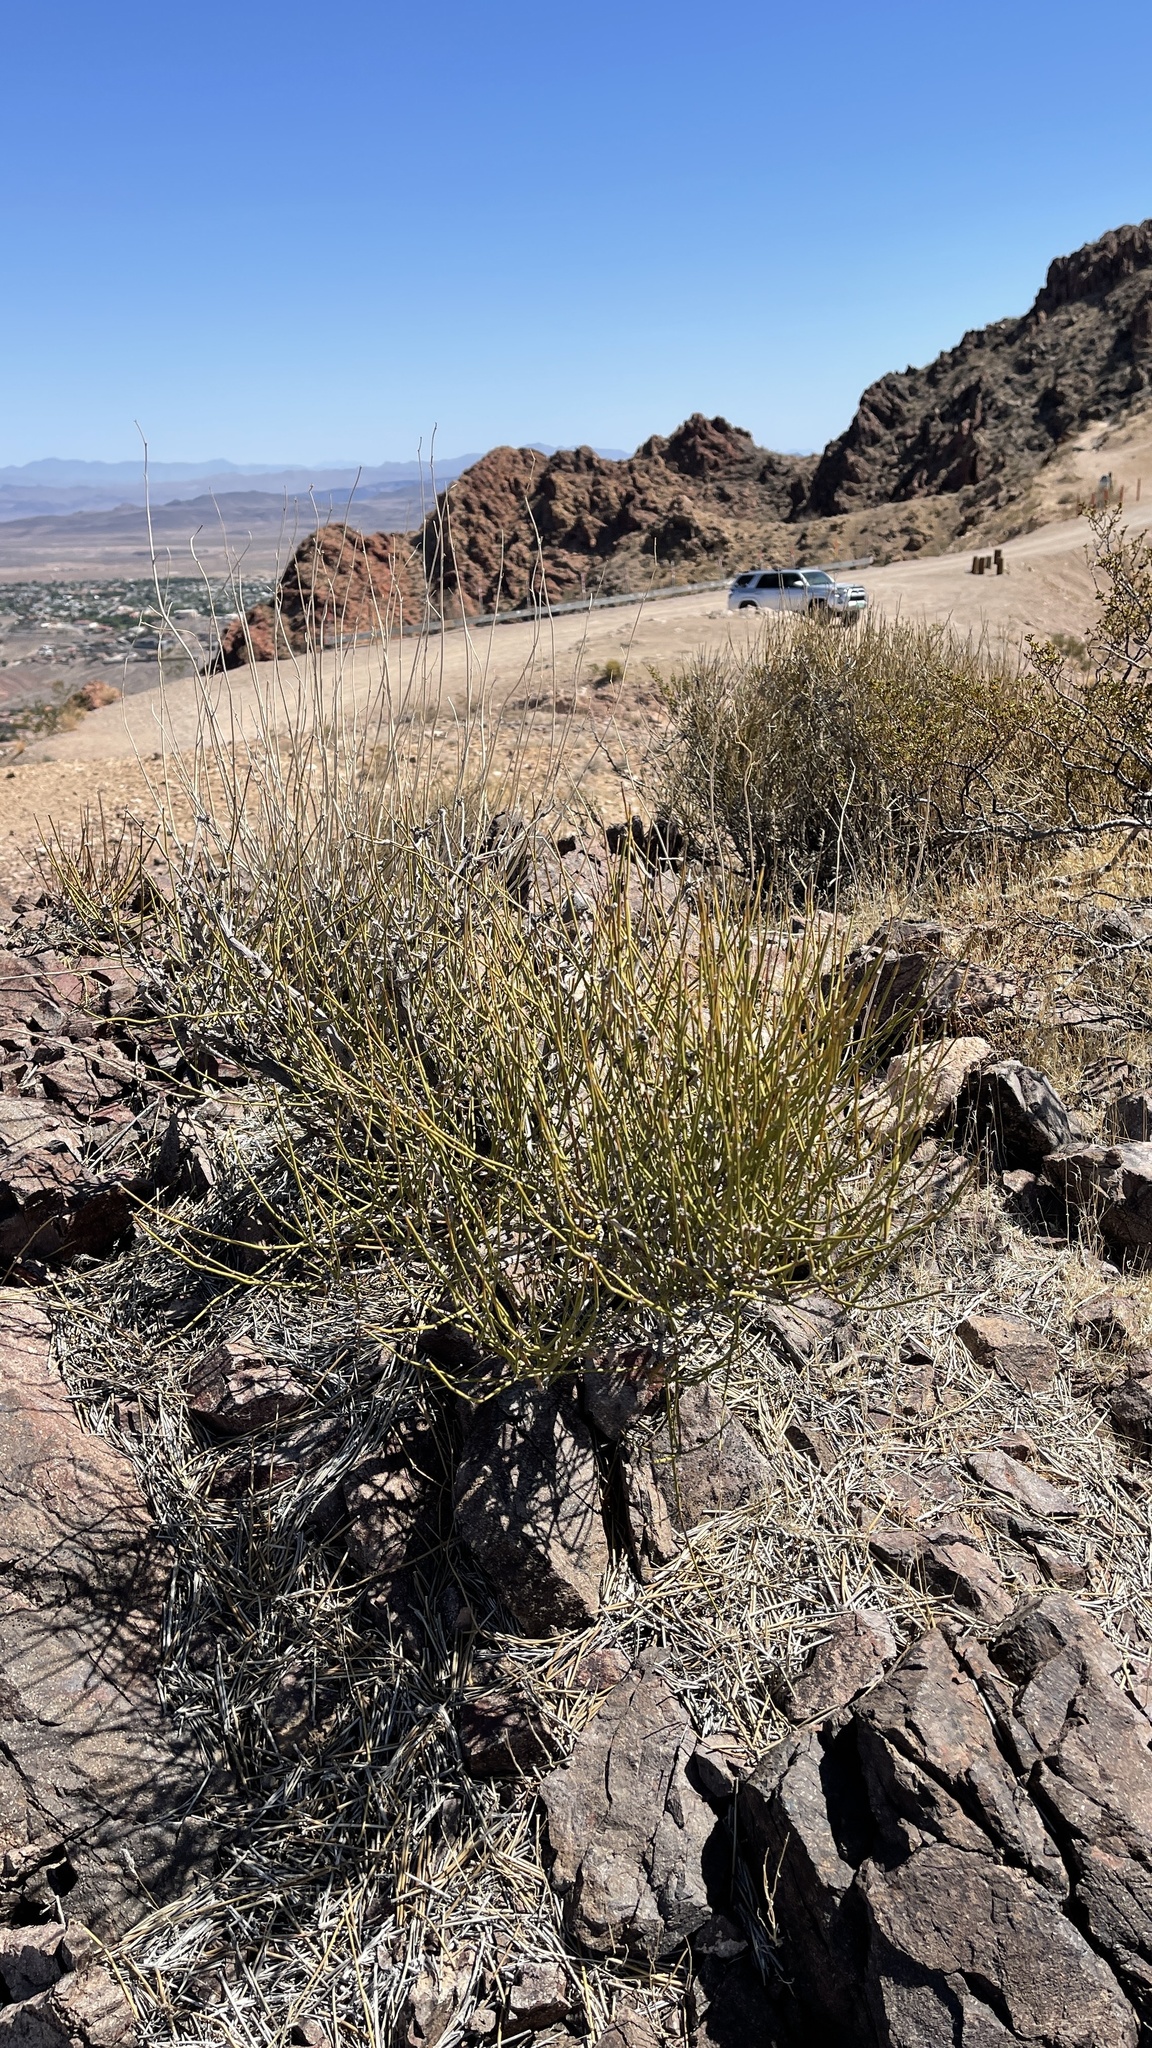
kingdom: Plantae
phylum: Tracheophyta
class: Gnetopsida
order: Ephedrales
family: Ephedraceae
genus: Ephedra
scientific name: Ephedra nevadensis
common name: Gray ephedra
